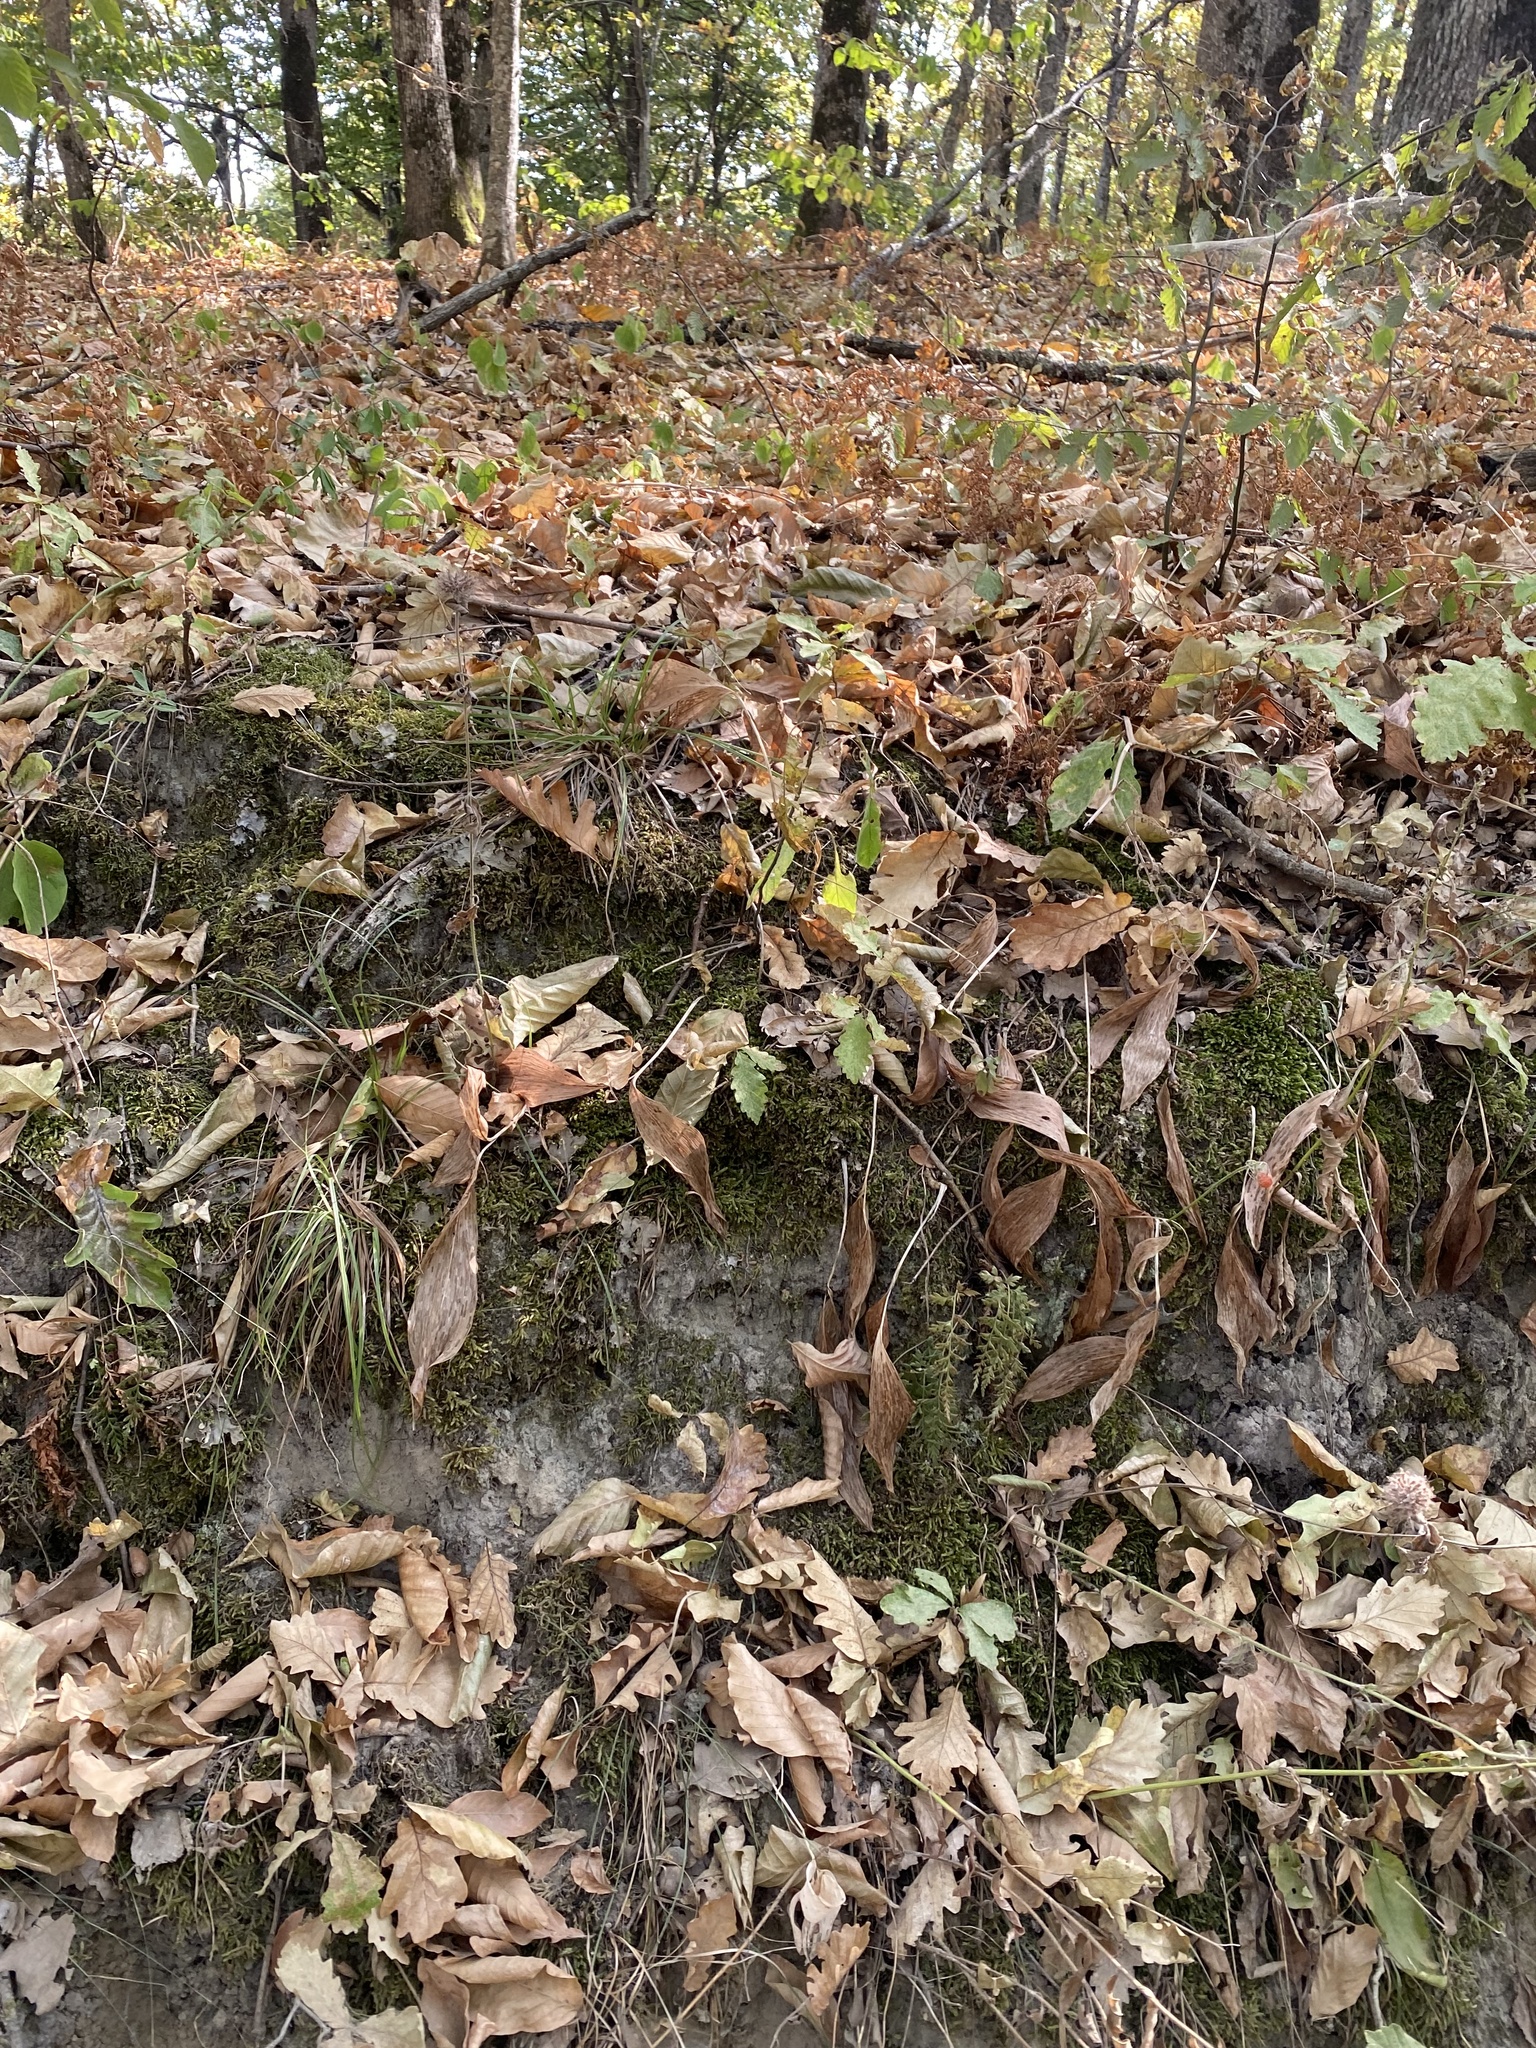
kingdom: Plantae
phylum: Tracheophyta
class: Polypodiopsida
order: Polypodiales
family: Aspleniaceae
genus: Asplenium
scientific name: Asplenium adiantum-nigrum
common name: Black spleenwort
